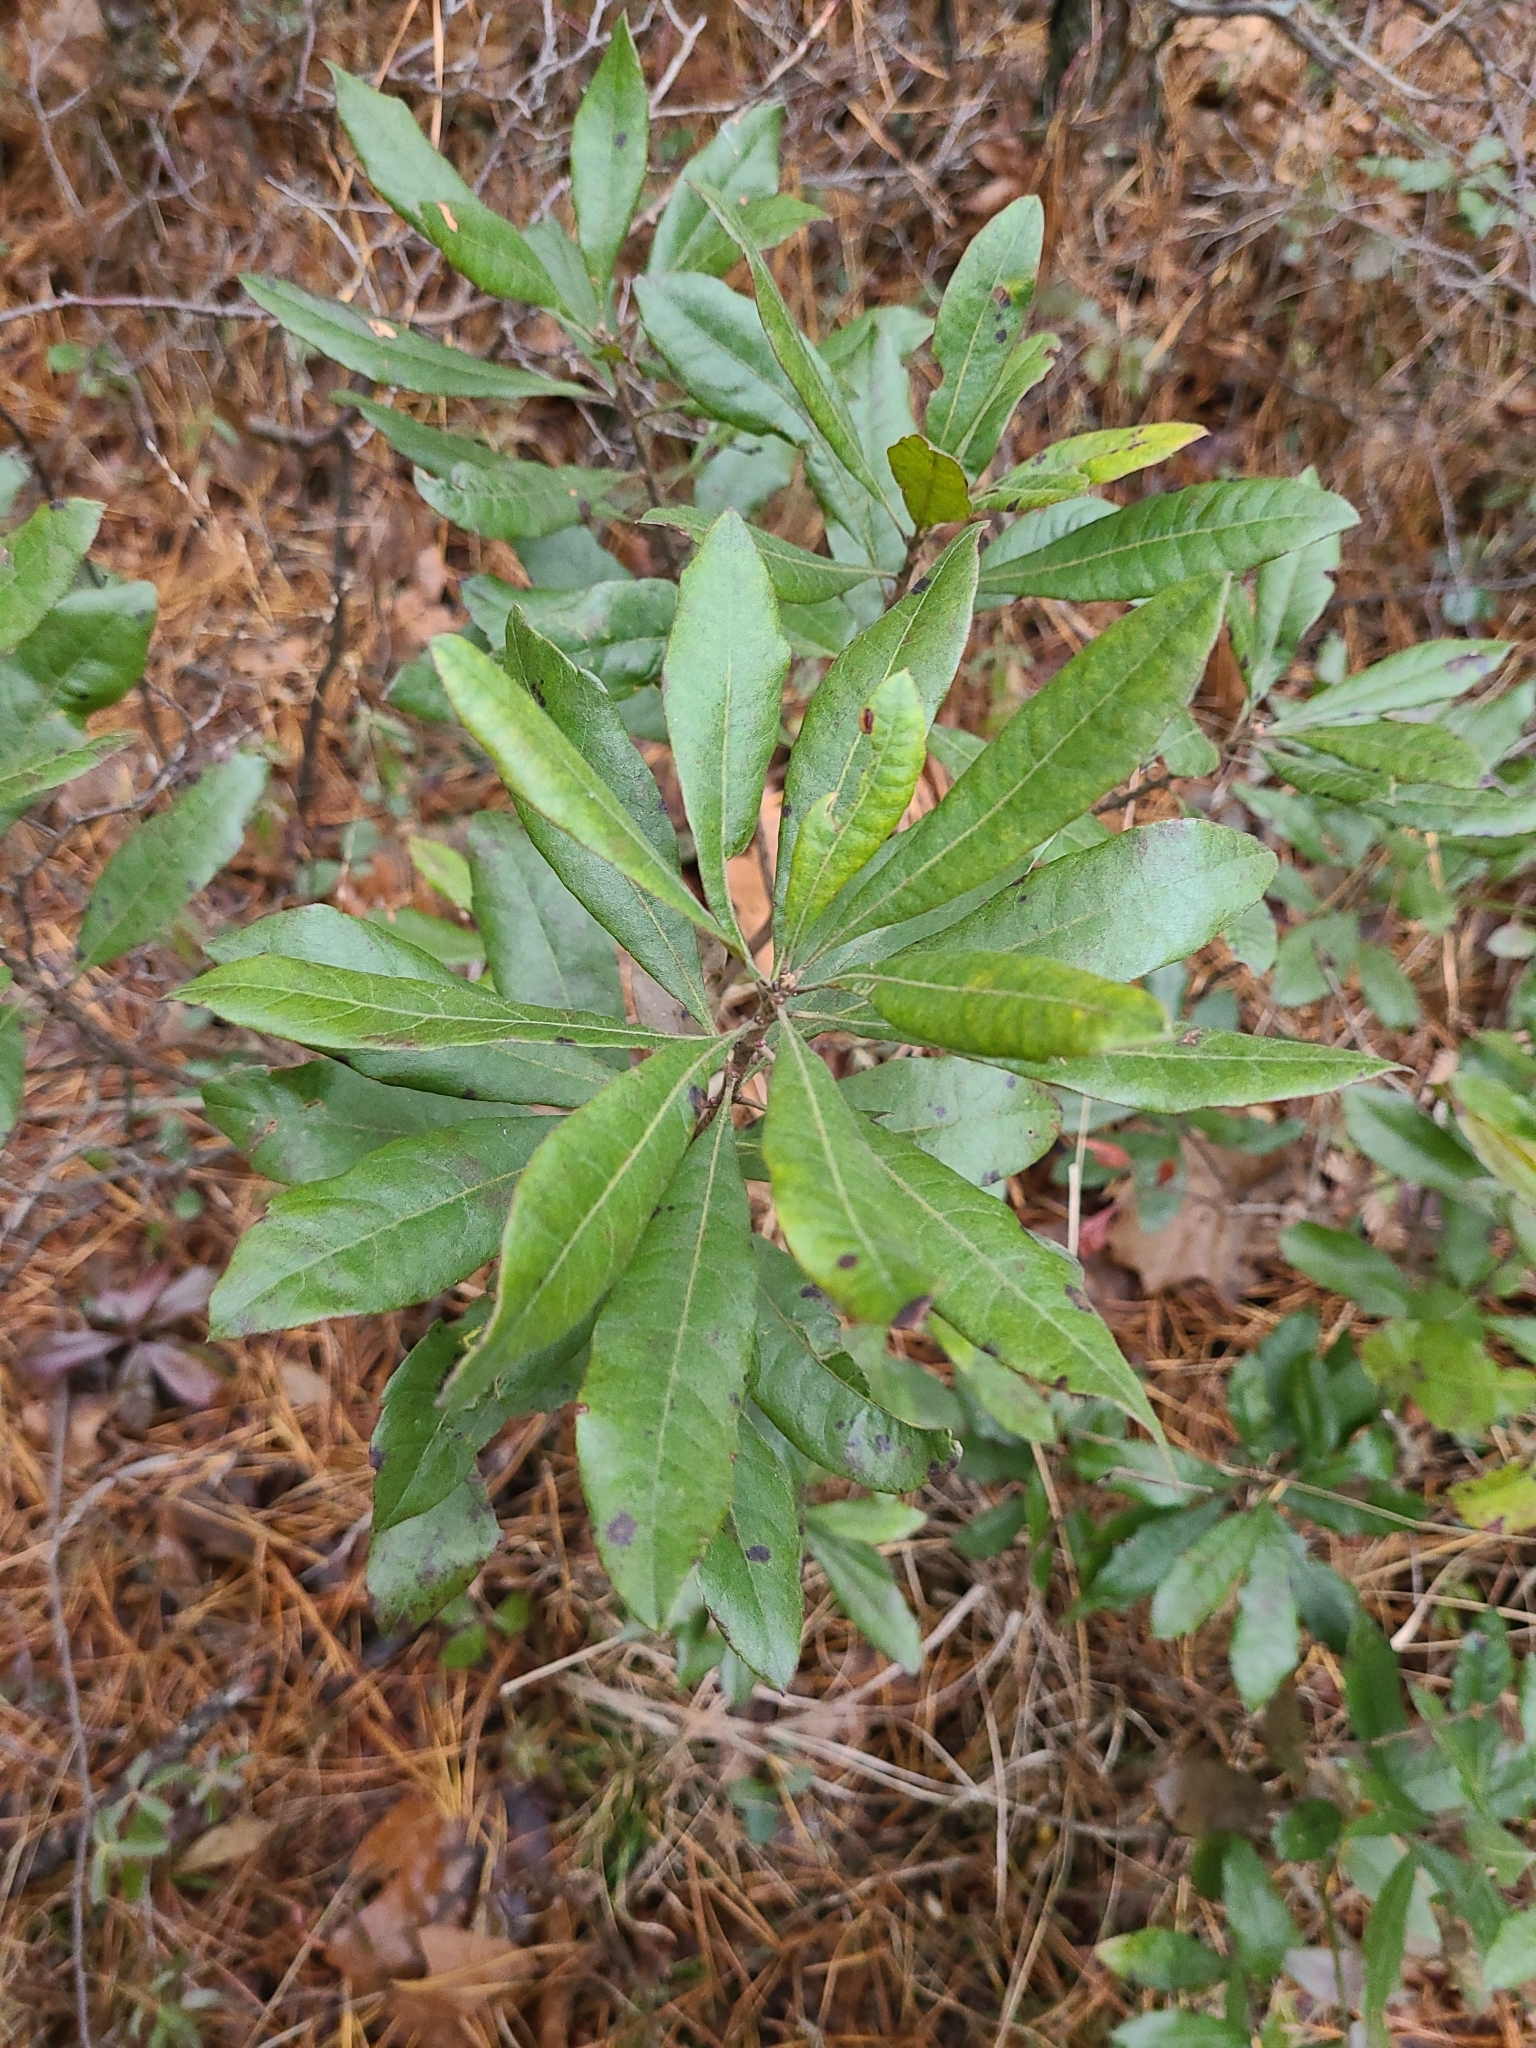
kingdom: Plantae
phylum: Tracheophyta
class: Magnoliopsida
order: Fagales
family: Myricaceae
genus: Morella
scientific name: Morella caroliniensis
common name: Evergreen bayberry
